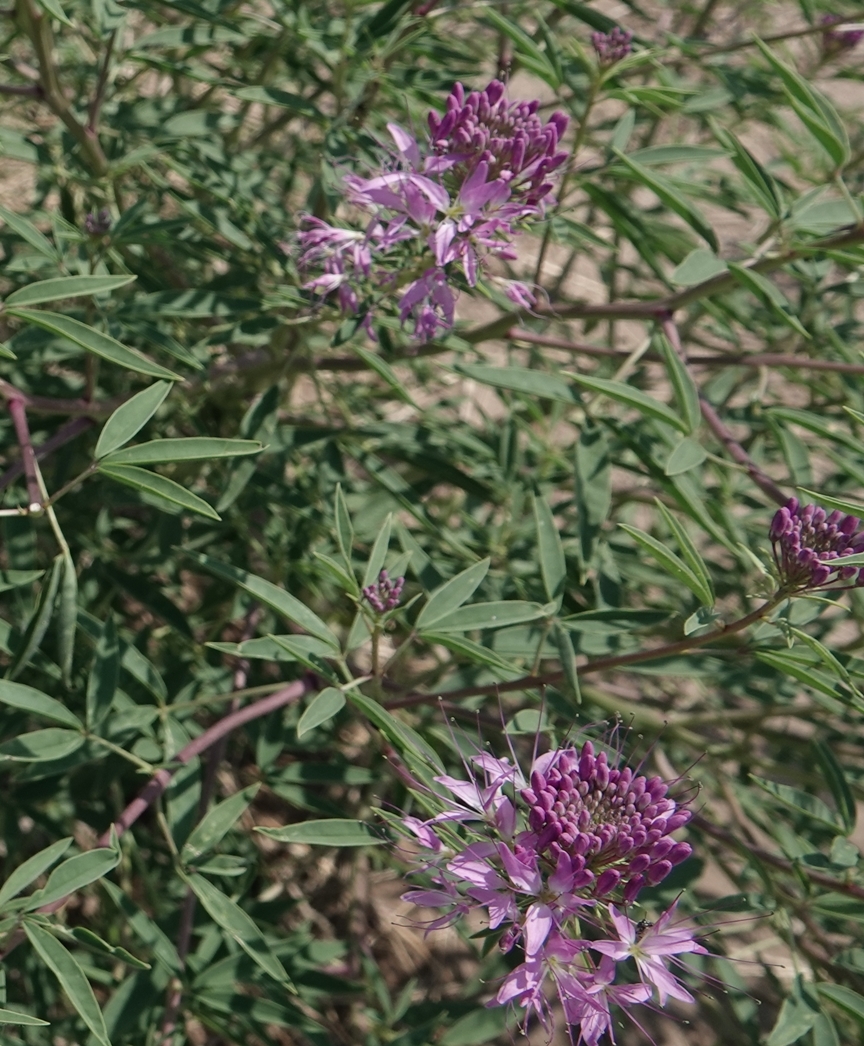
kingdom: Plantae
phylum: Tracheophyta
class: Magnoliopsida
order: Brassicales
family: Cleomaceae
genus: Cleomella
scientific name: Cleomella serrulata
